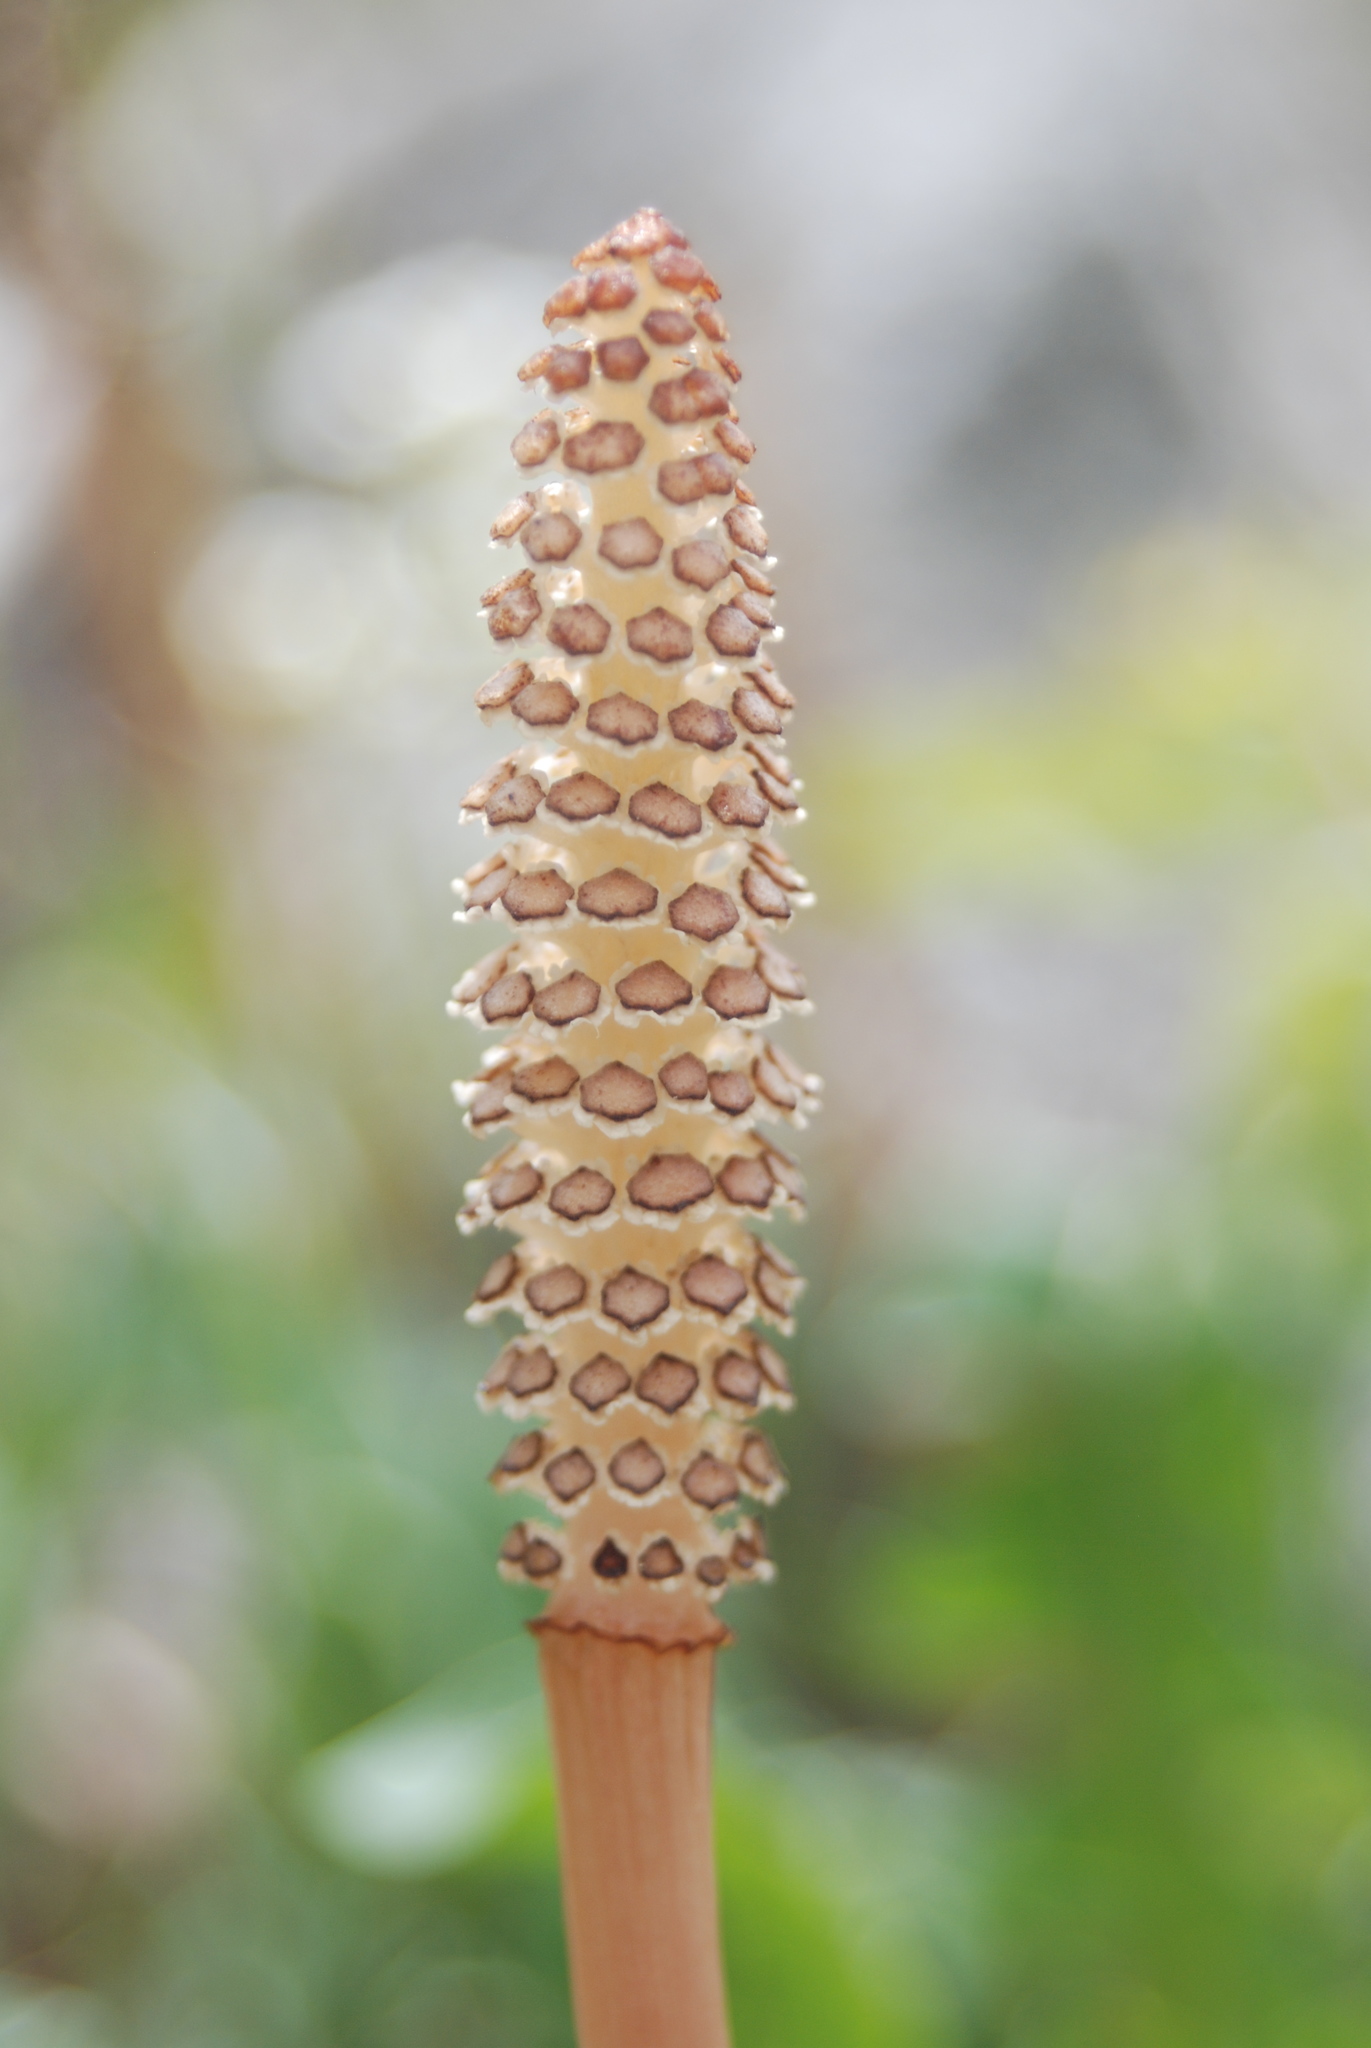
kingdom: Plantae
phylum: Tracheophyta
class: Polypodiopsida
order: Equisetales
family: Equisetaceae
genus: Equisetum
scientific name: Equisetum arvense
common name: Field horsetail
